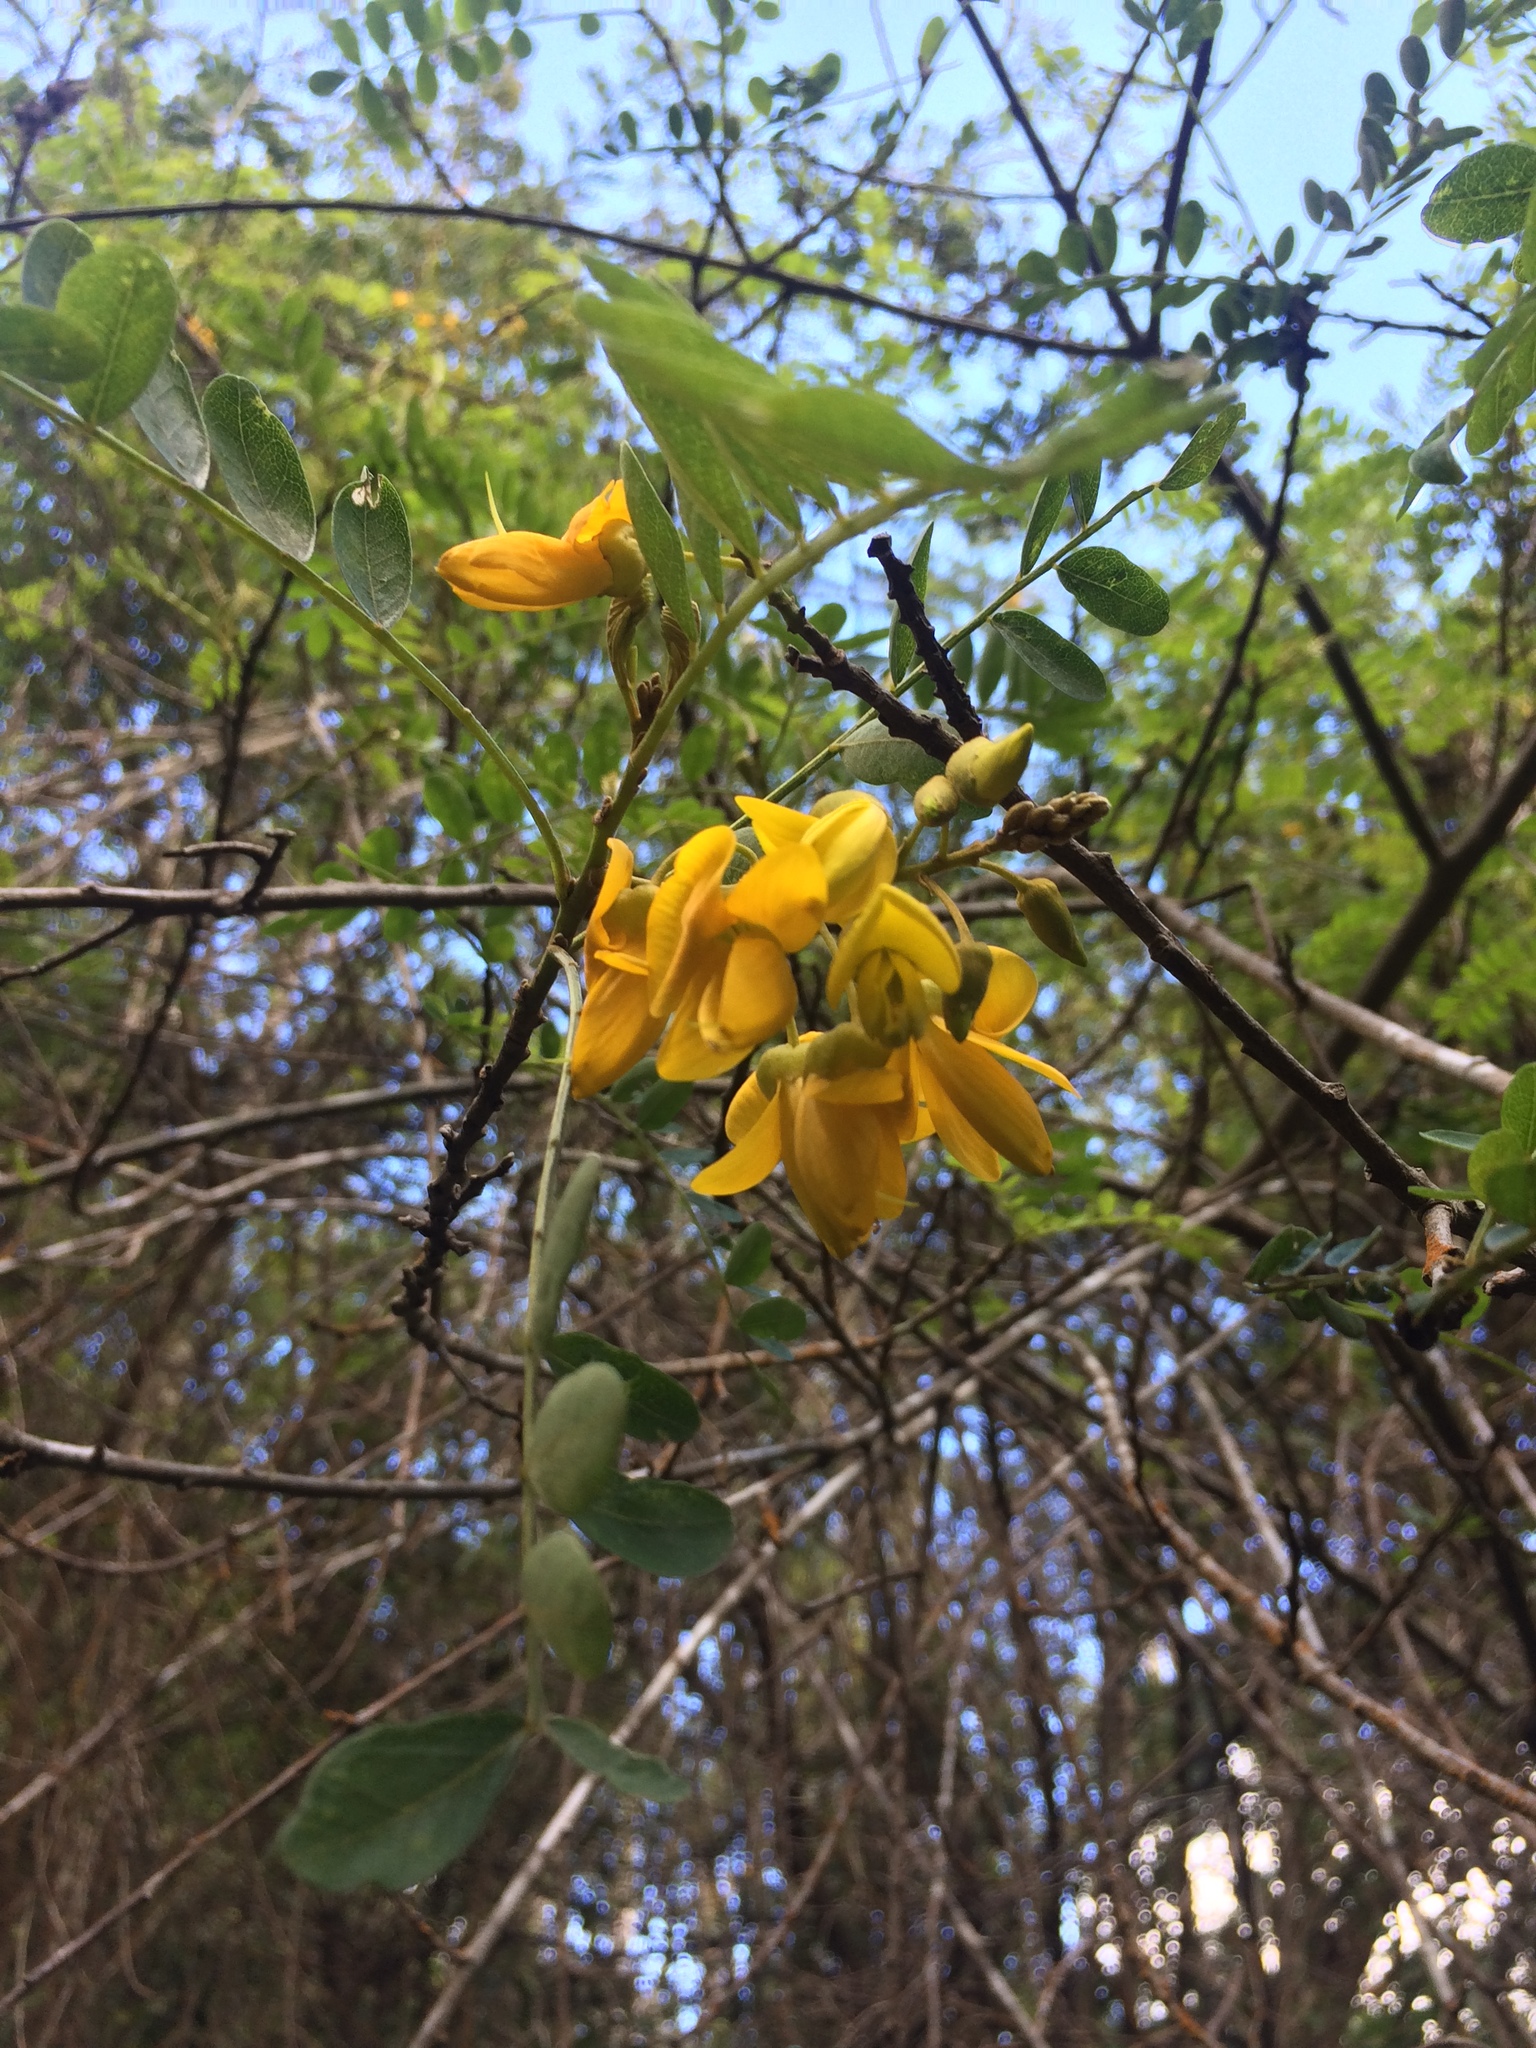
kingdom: Plantae
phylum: Tracheophyta
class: Magnoliopsida
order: Fabales
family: Fabaceae
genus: Sophora
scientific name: Sophora chrysophylla
